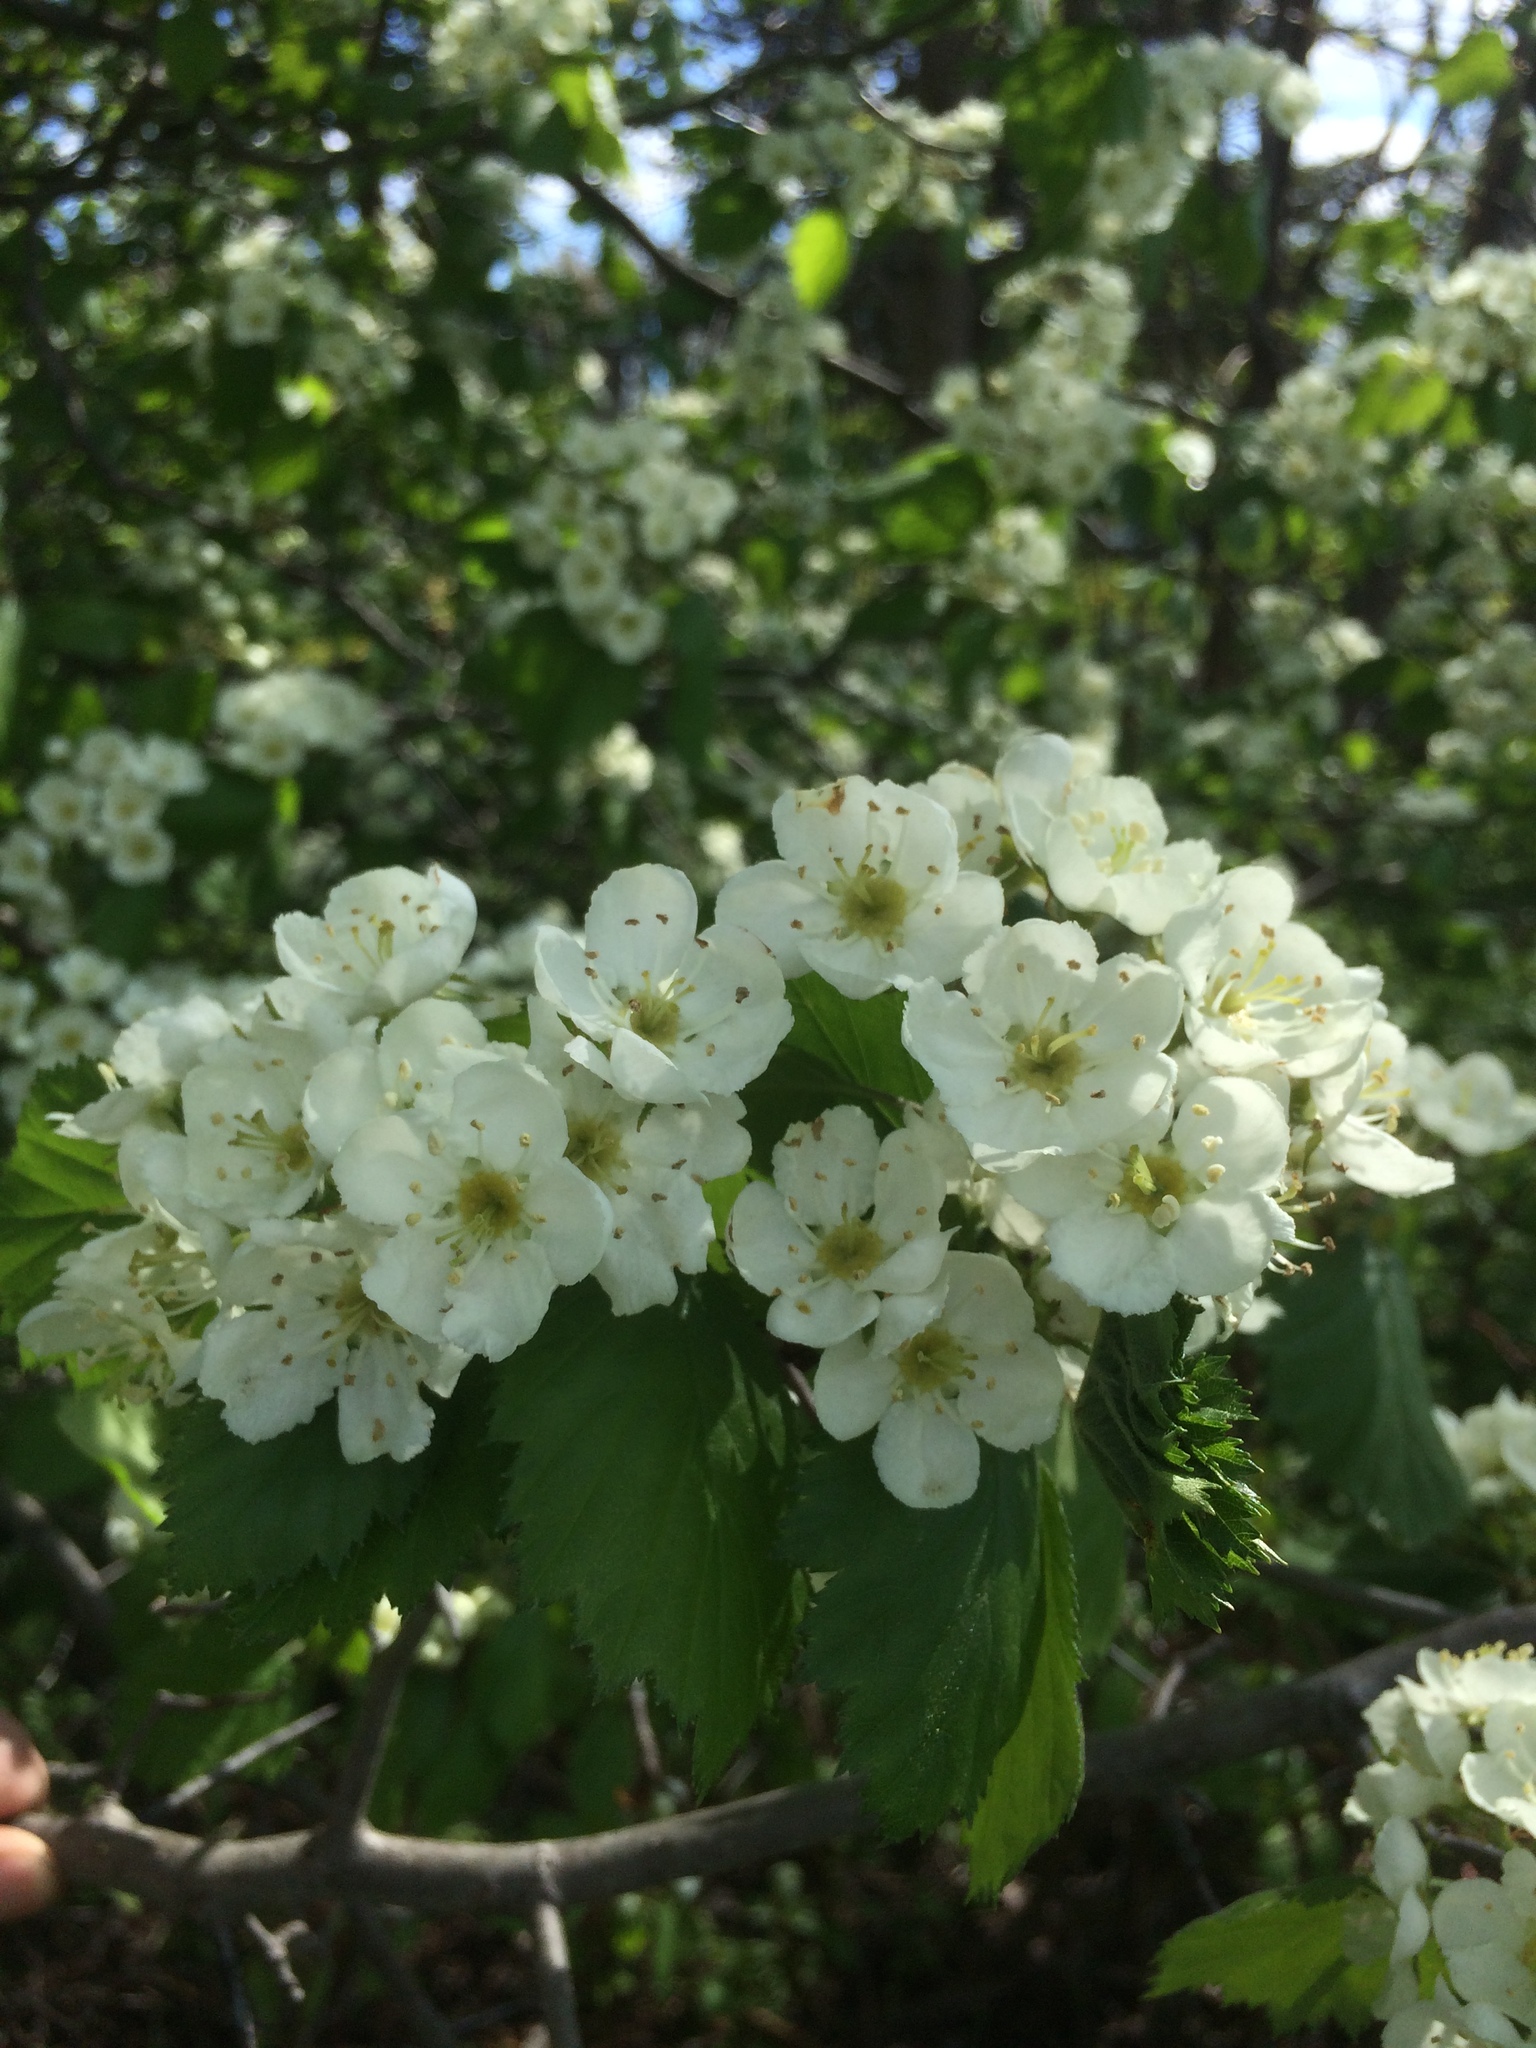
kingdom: Plantae
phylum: Tracheophyta
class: Magnoliopsida
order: Rosales
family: Rosaceae
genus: Crataegus
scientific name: Crataegus submollis
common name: Hairy cockspurthorn
